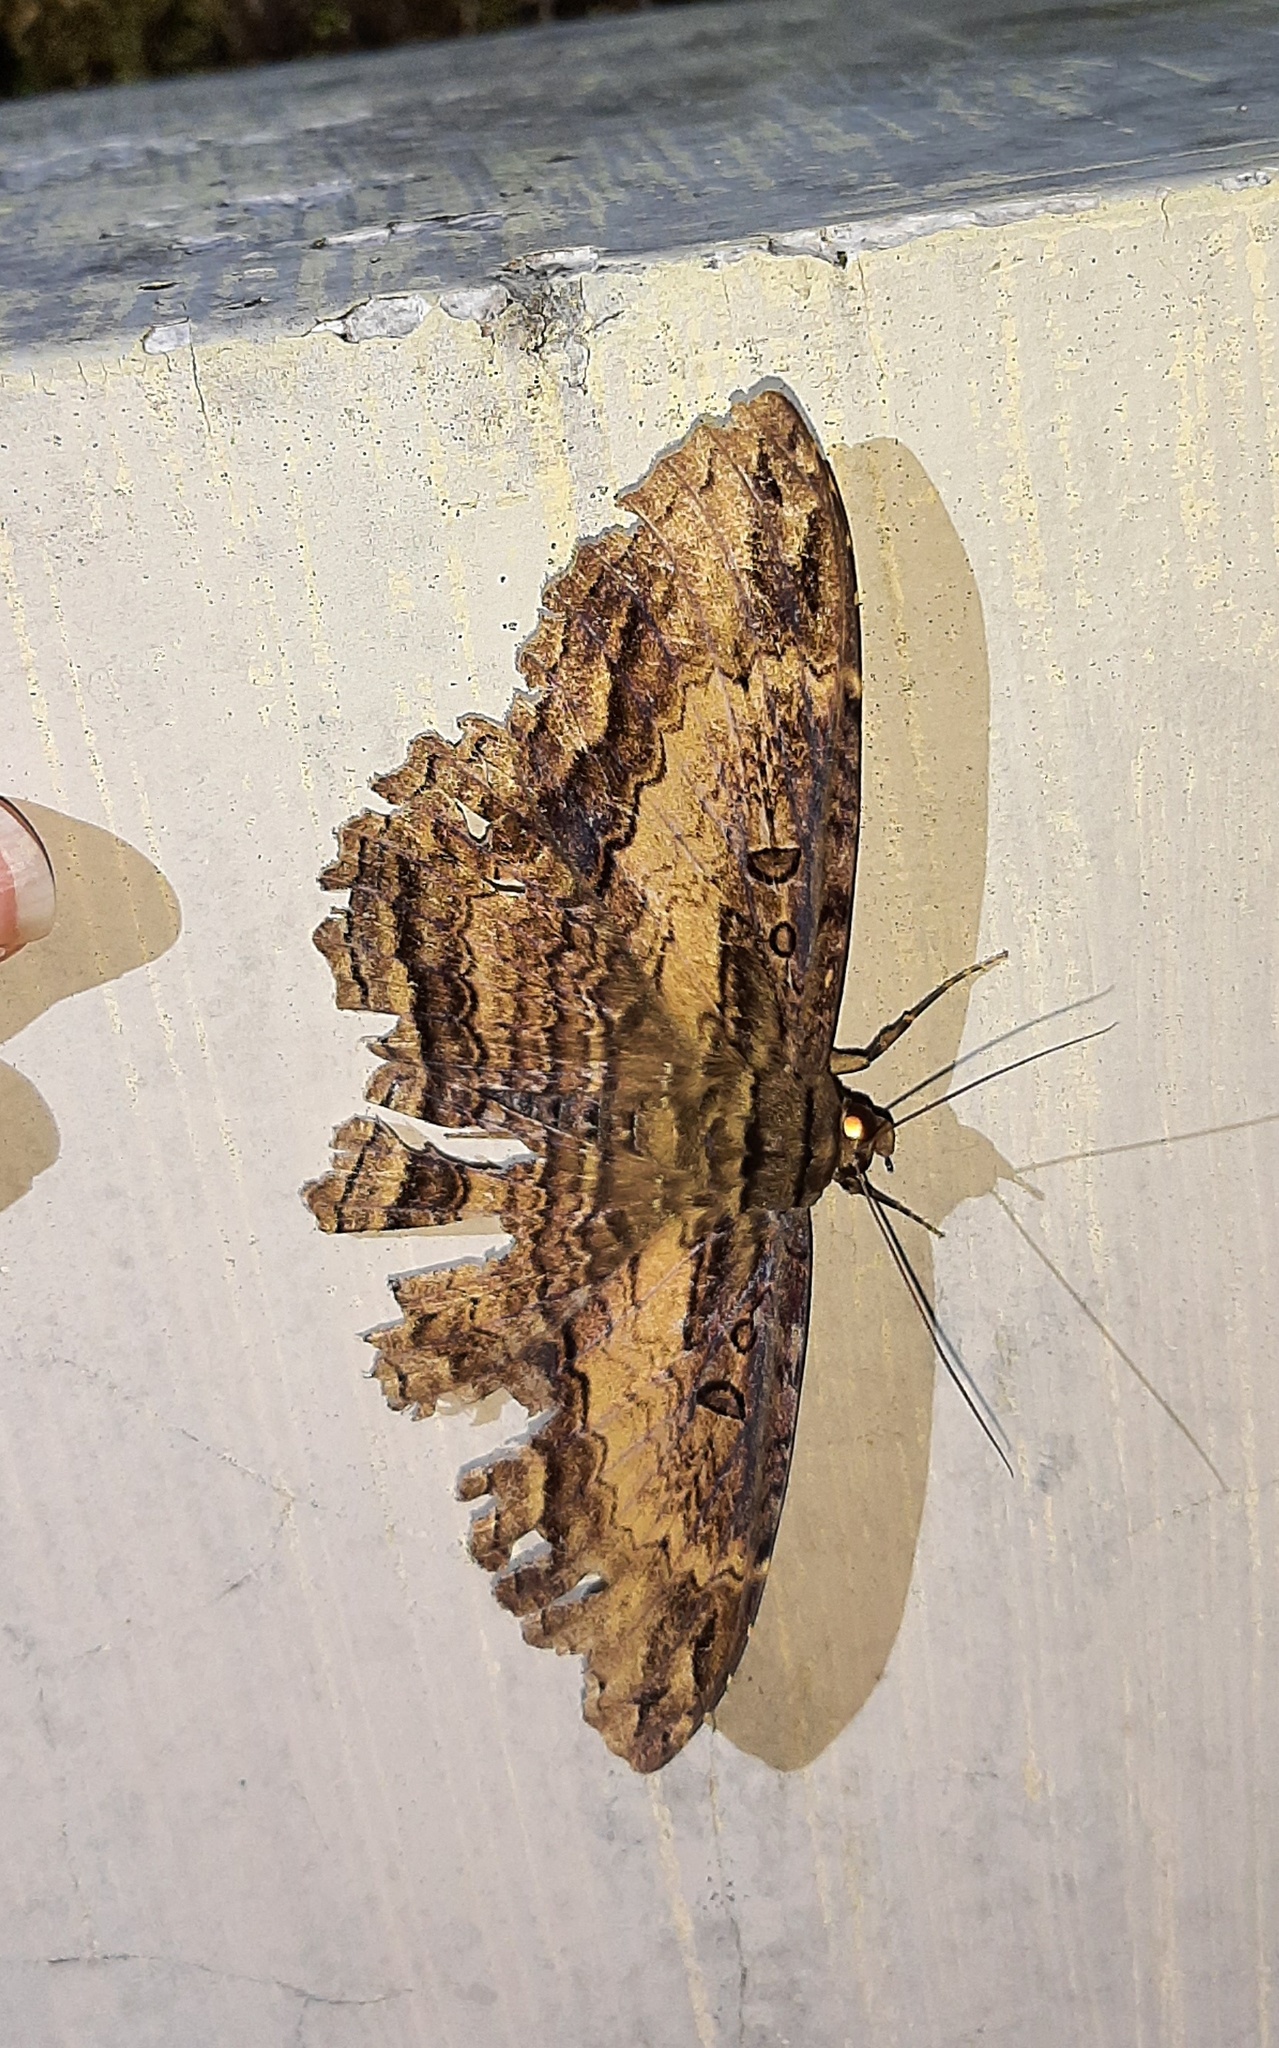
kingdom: Animalia
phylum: Arthropoda
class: Insecta
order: Lepidoptera
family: Erebidae
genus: Feigeria
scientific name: Feigeria buteo
